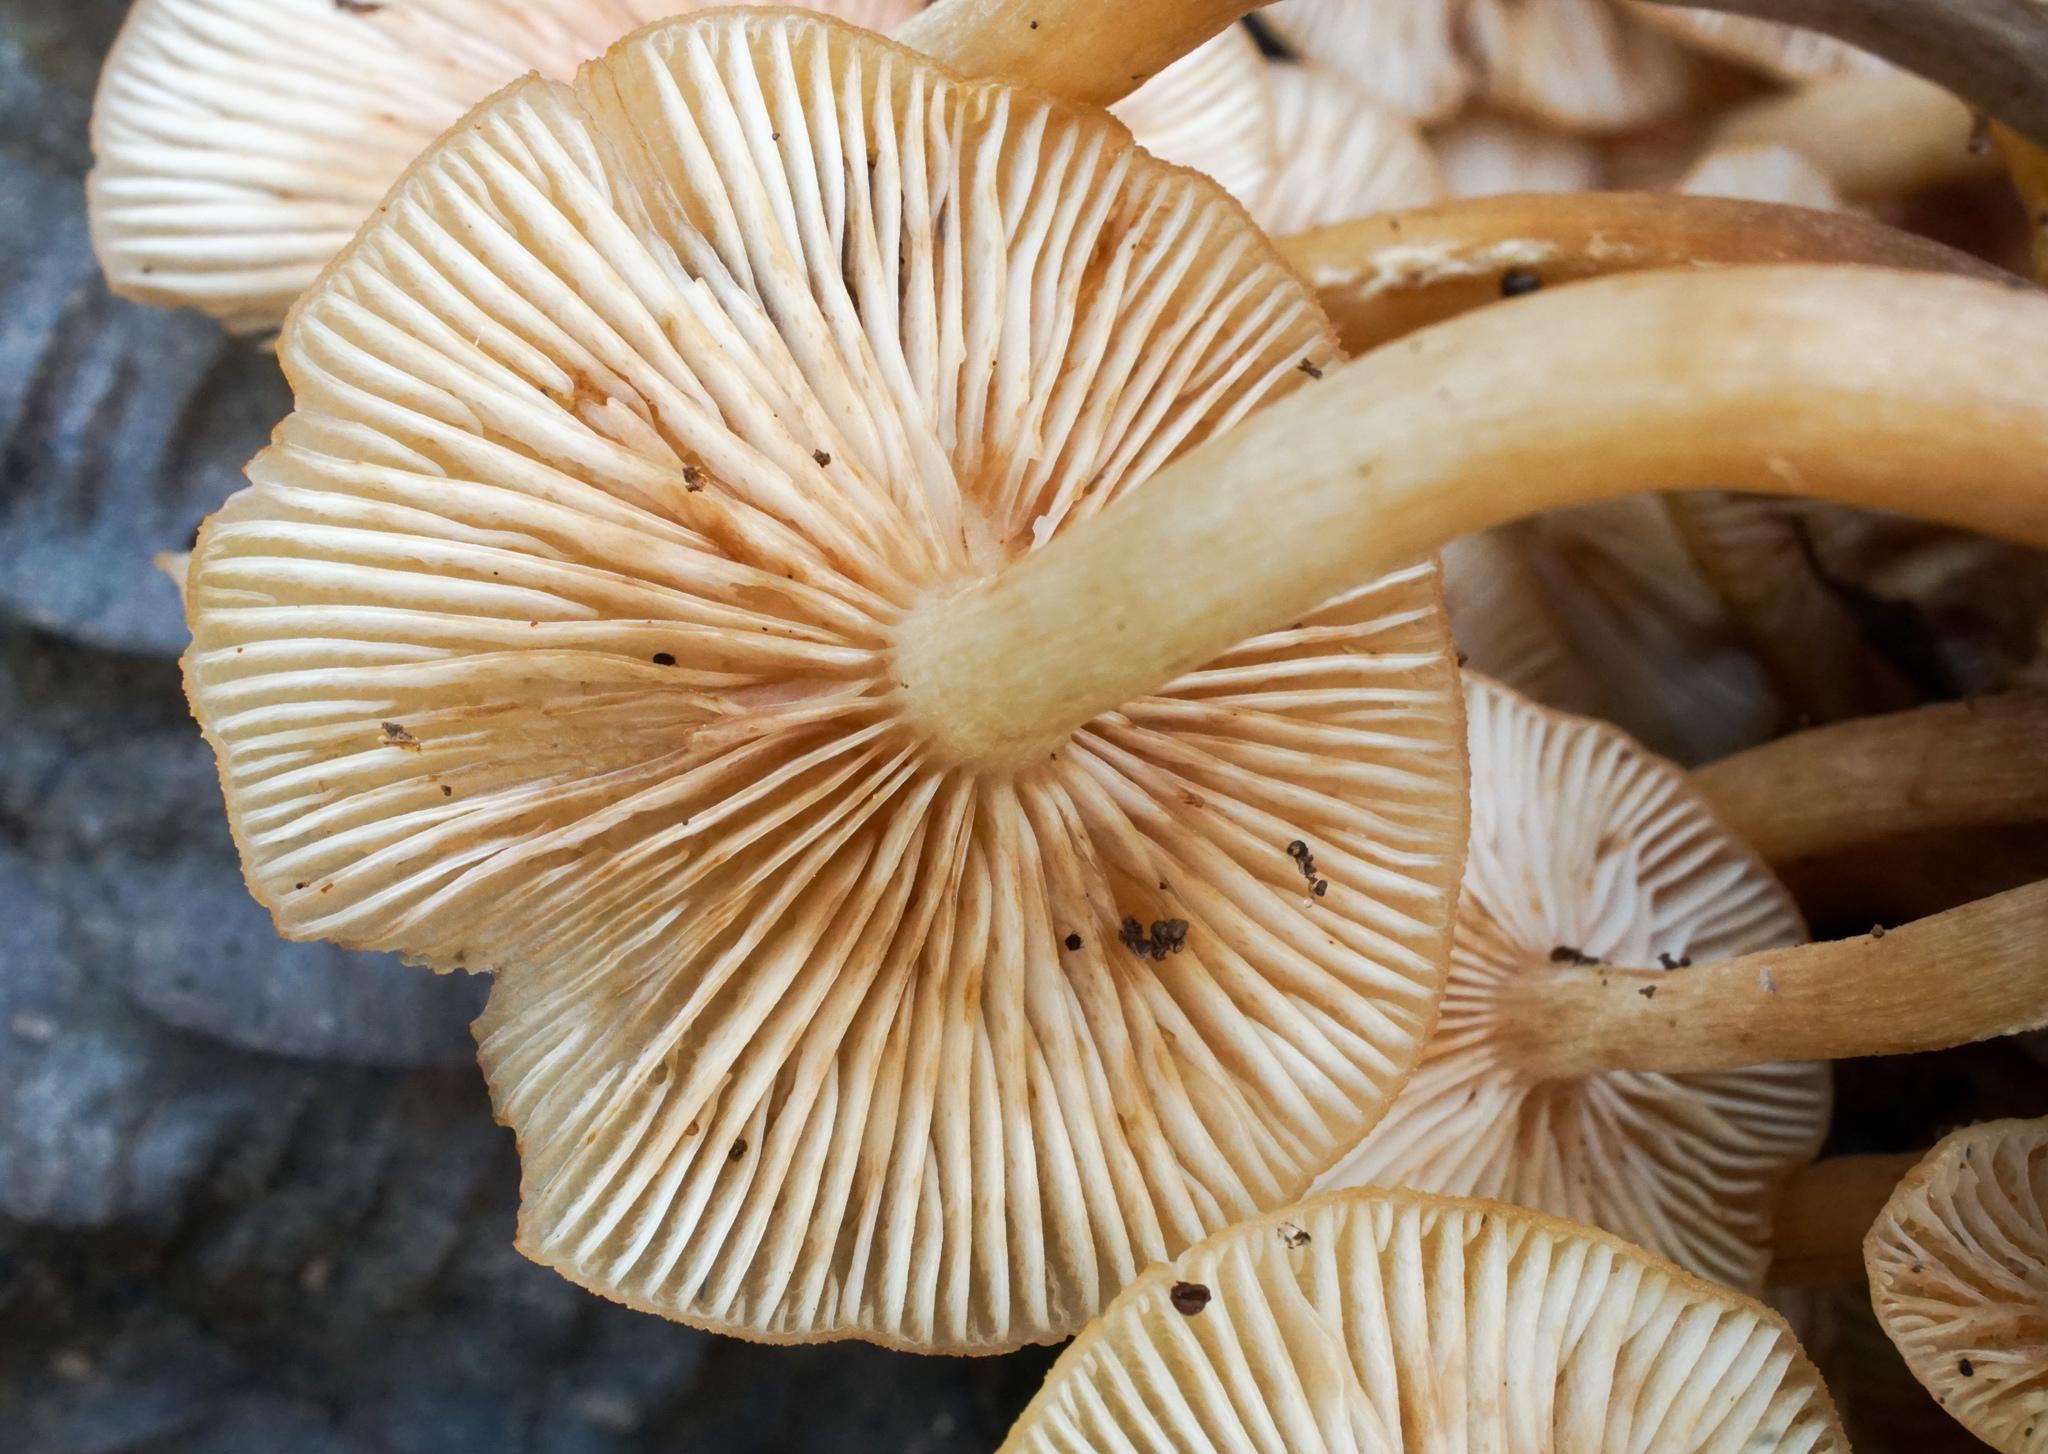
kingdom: Fungi
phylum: Basidiomycota
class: Agaricomycetes
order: Agaricales
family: Physalacriaceae
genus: Desarmillaria
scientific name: Desarmillaria caespitosa
